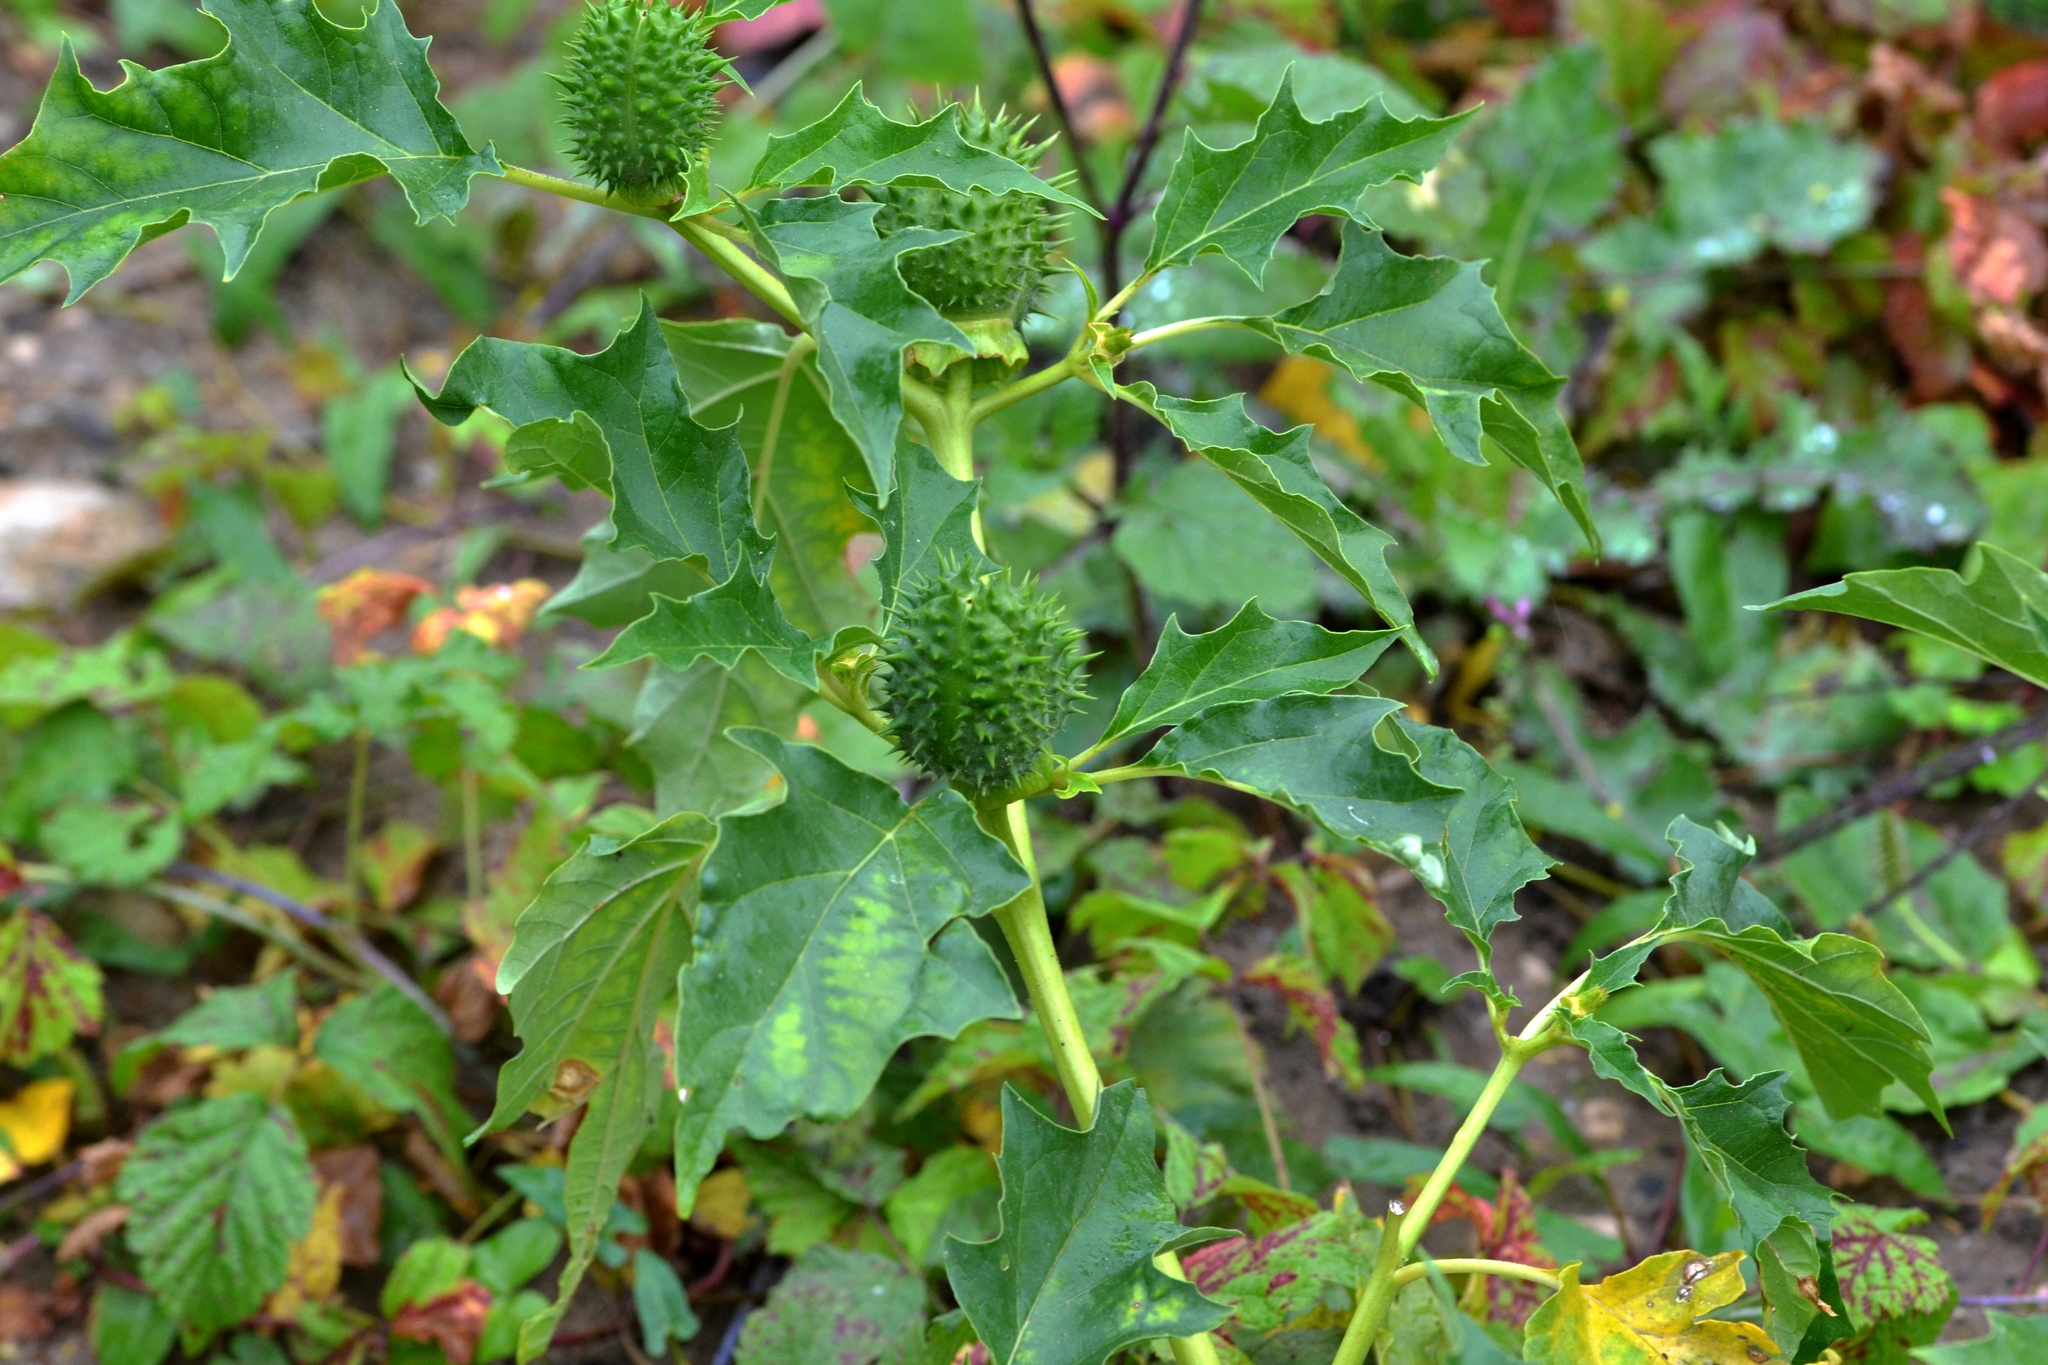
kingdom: Plantae
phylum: Tracheophyta
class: Magnoliopsida
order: Solanales
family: Solanaceae
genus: Datura
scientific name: Datura stramonium
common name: Thorn-apple
